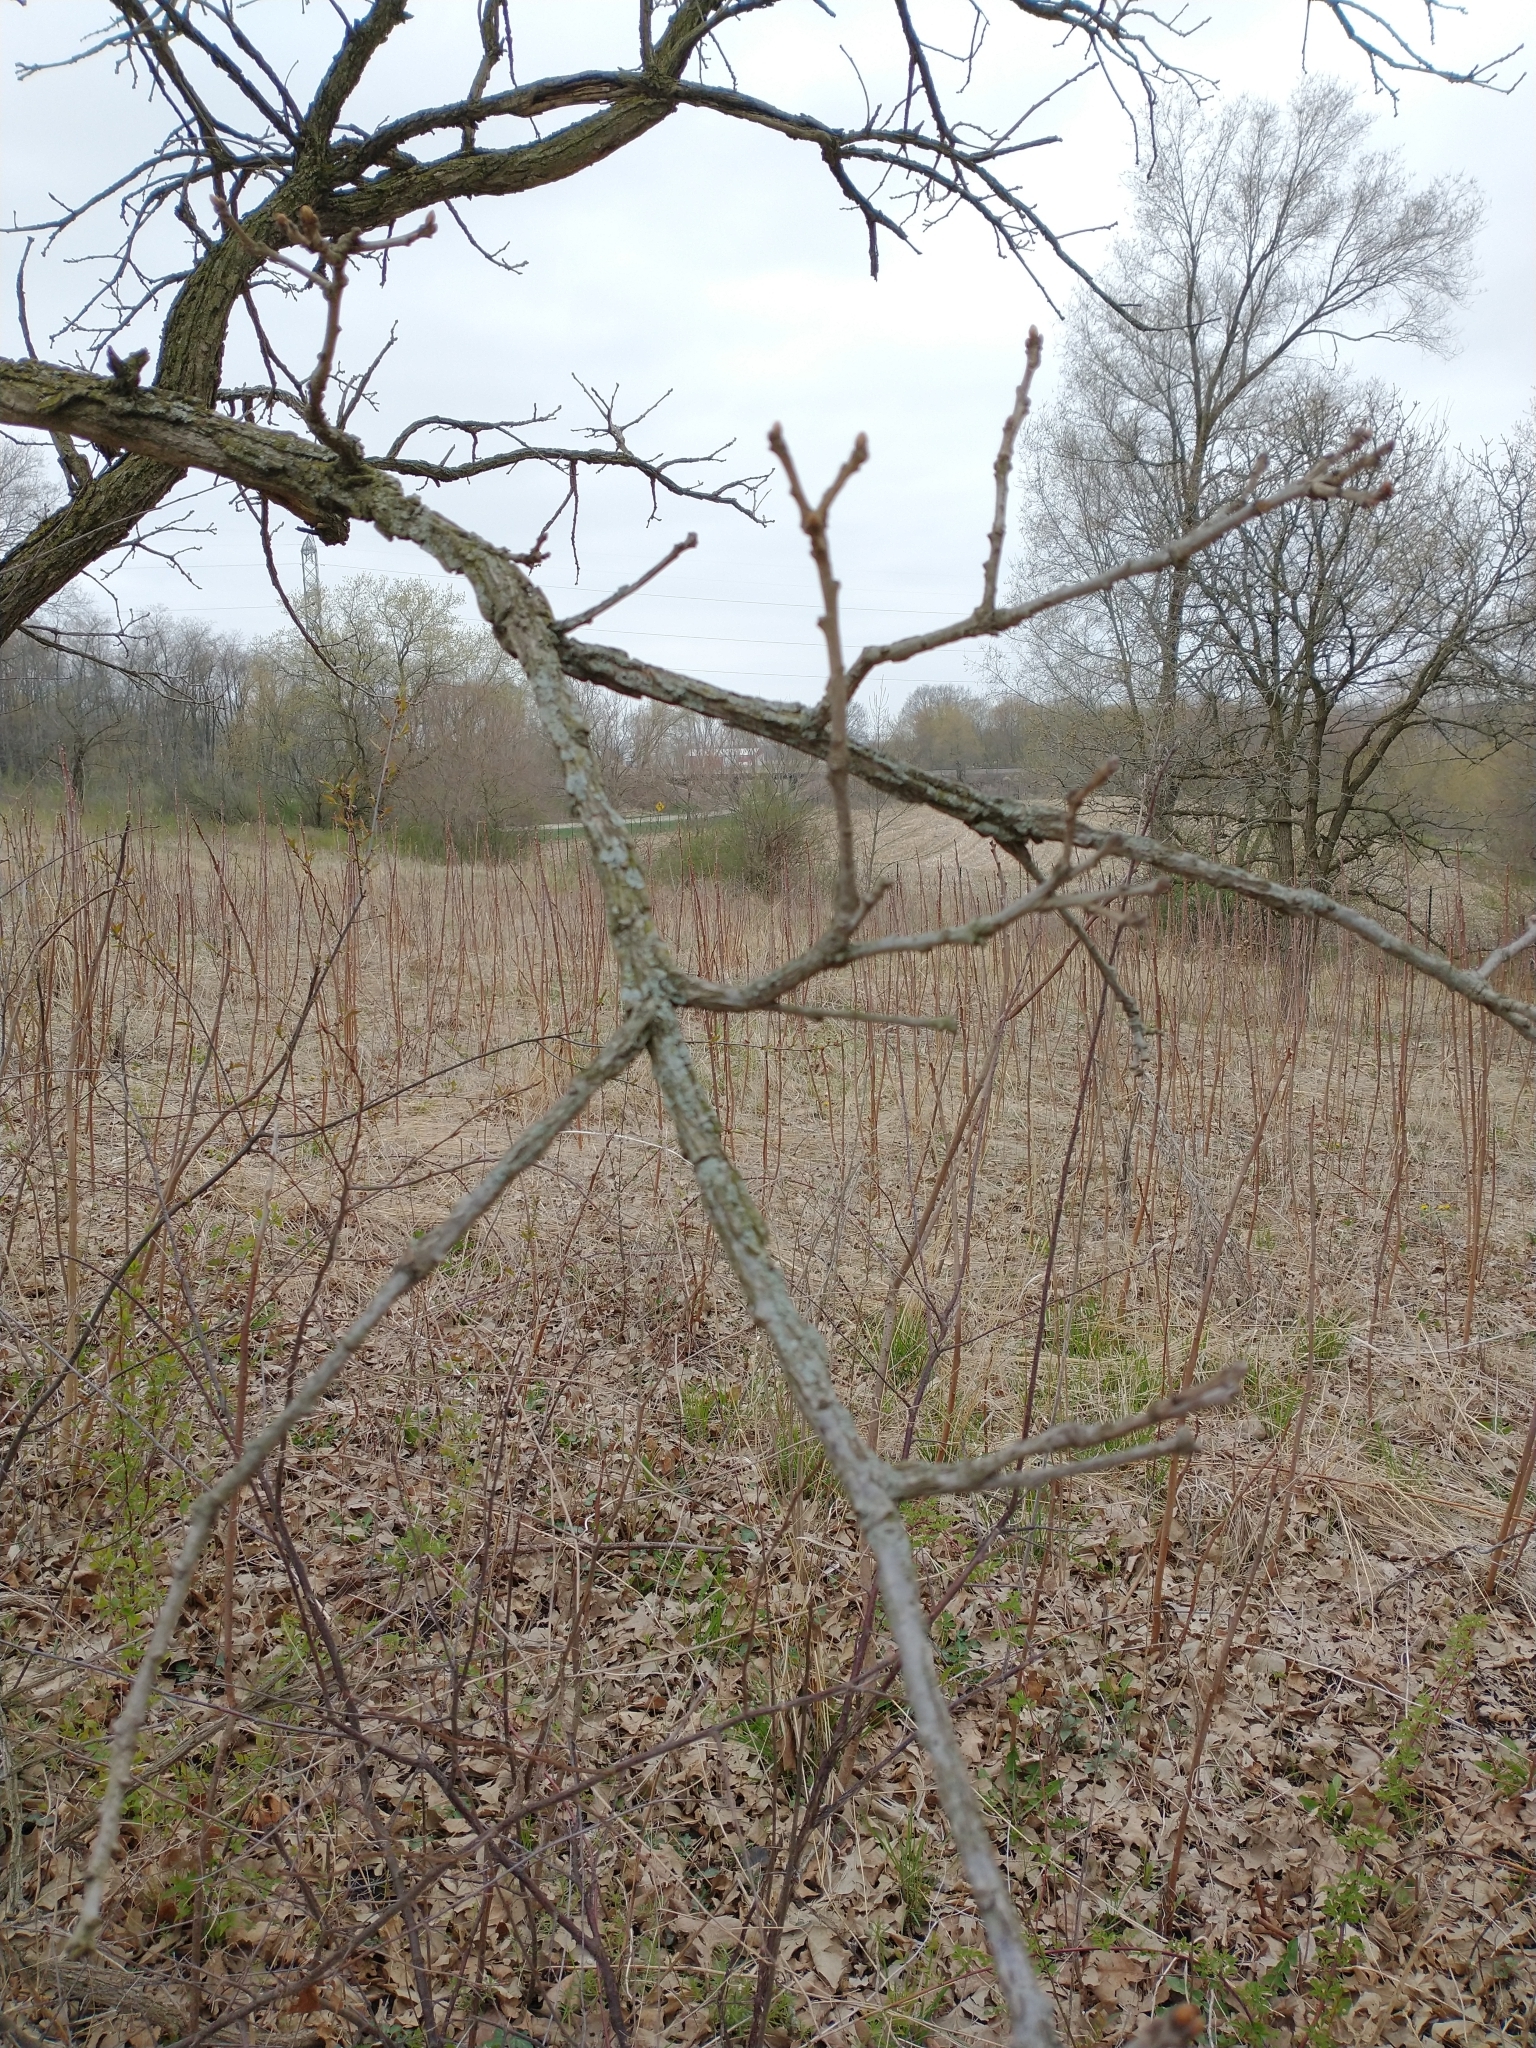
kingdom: Plantae
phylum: Tracheophyta
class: Magnoliopsida
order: Fagales
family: Fagaceae
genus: Quercus
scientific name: Quercus macrocarpa
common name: Bur oak
